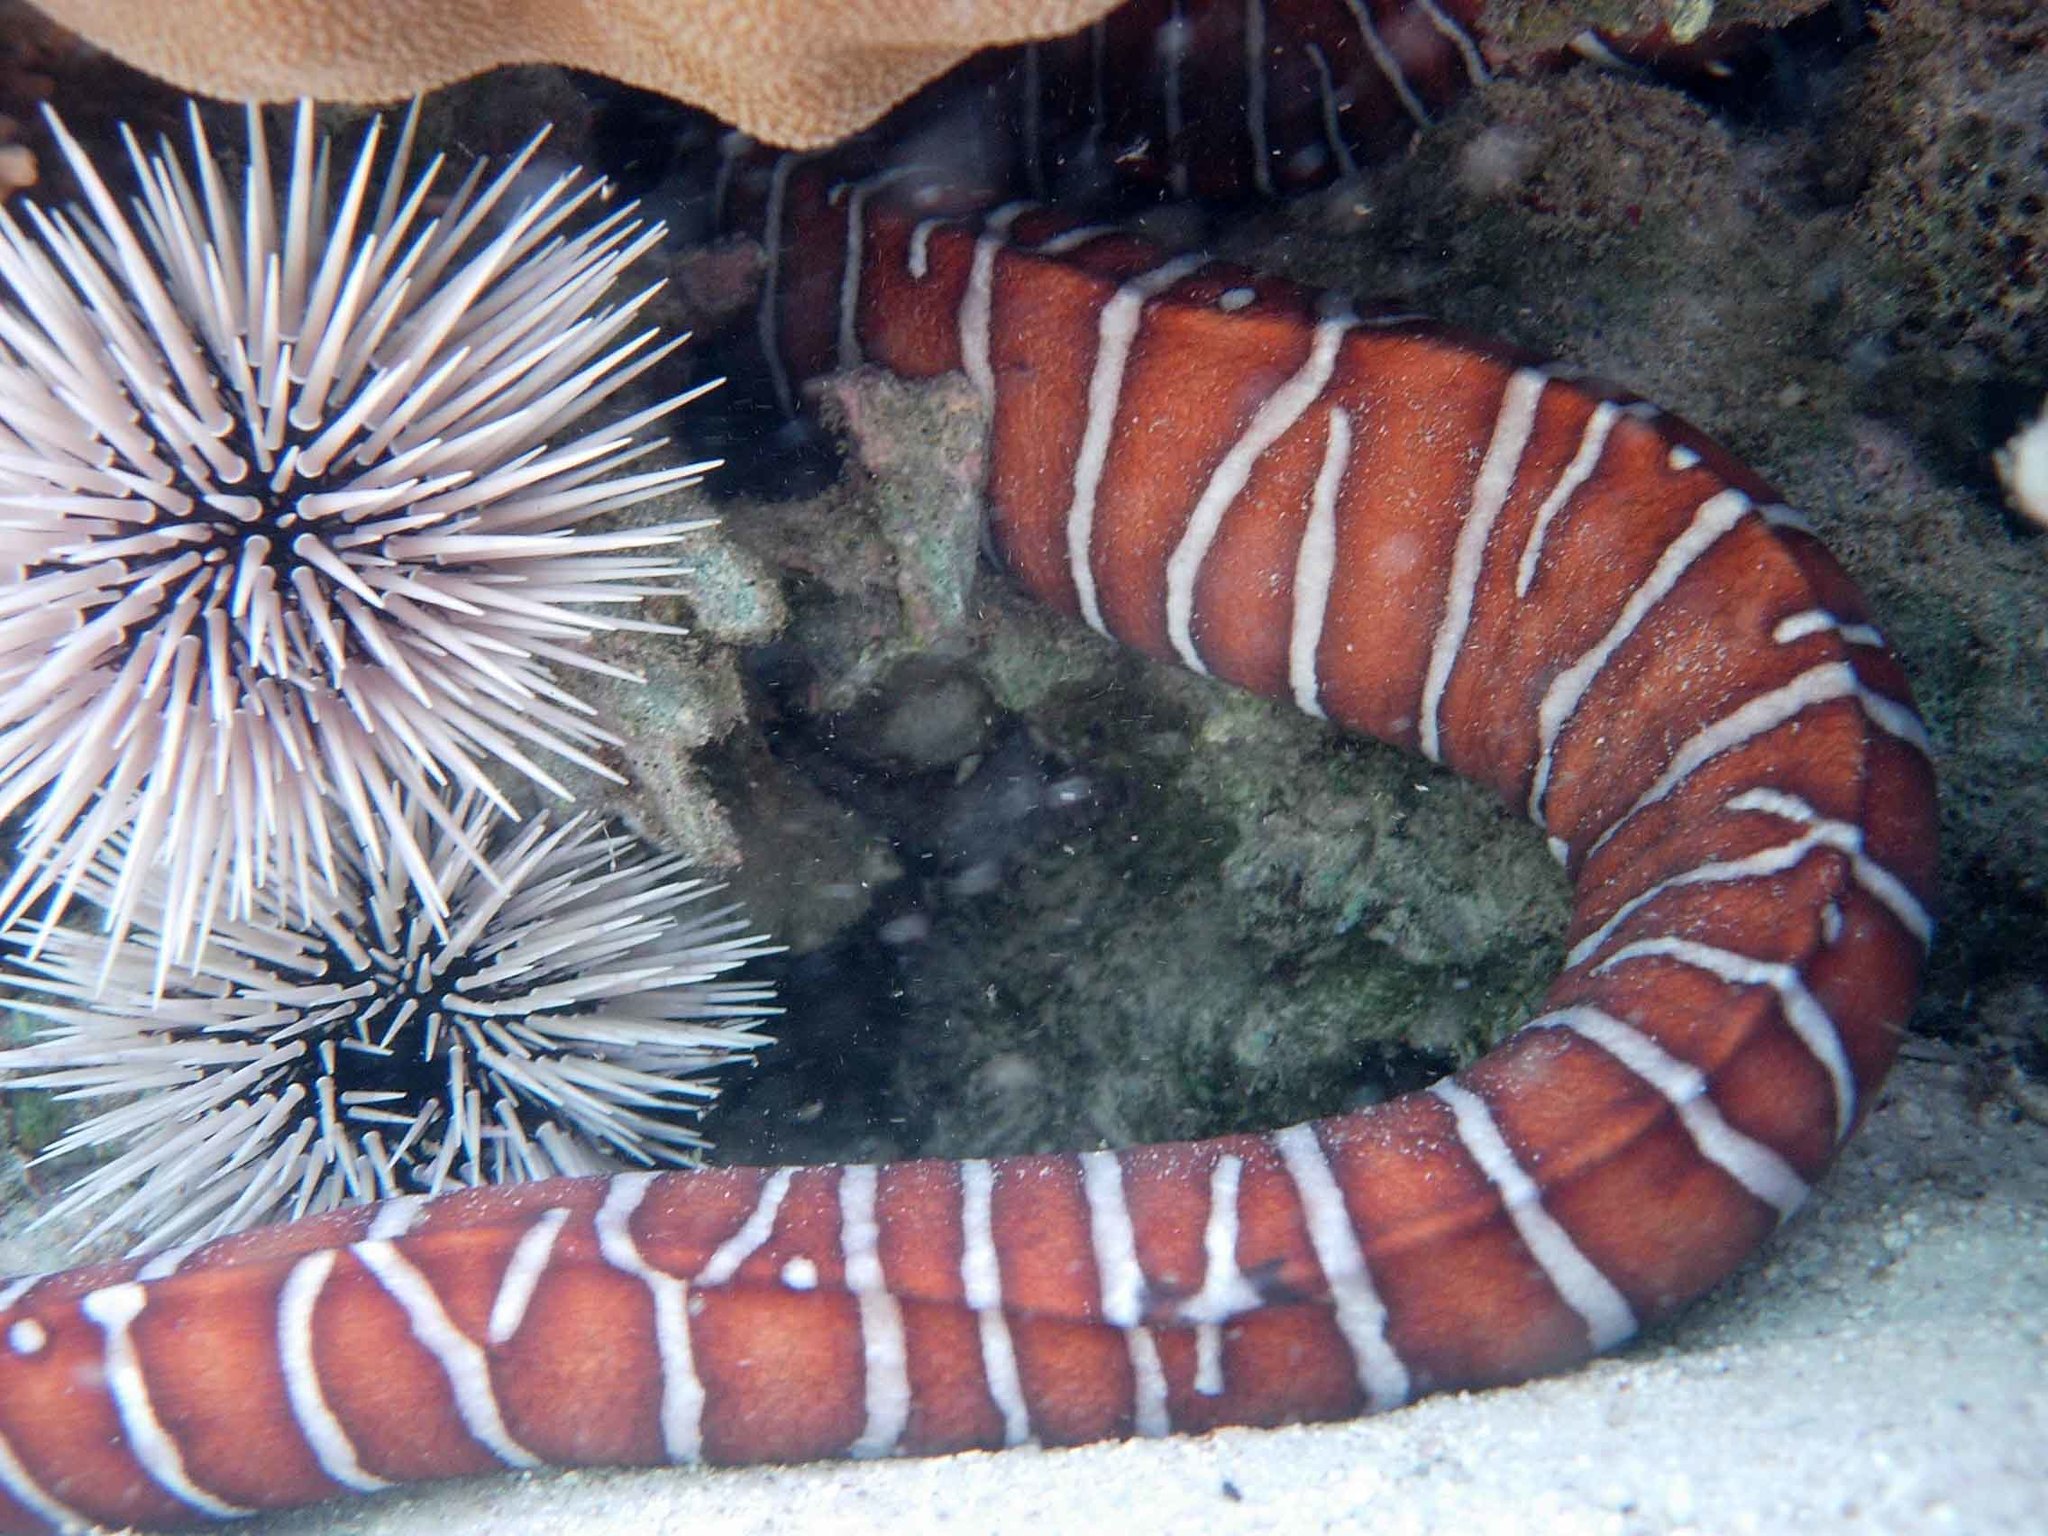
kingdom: Animalia
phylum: Chordata
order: Anguilliformes
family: Muraenidae
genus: Gymnomuraena
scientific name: Gymnomuraena zebra
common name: Zebra moray
